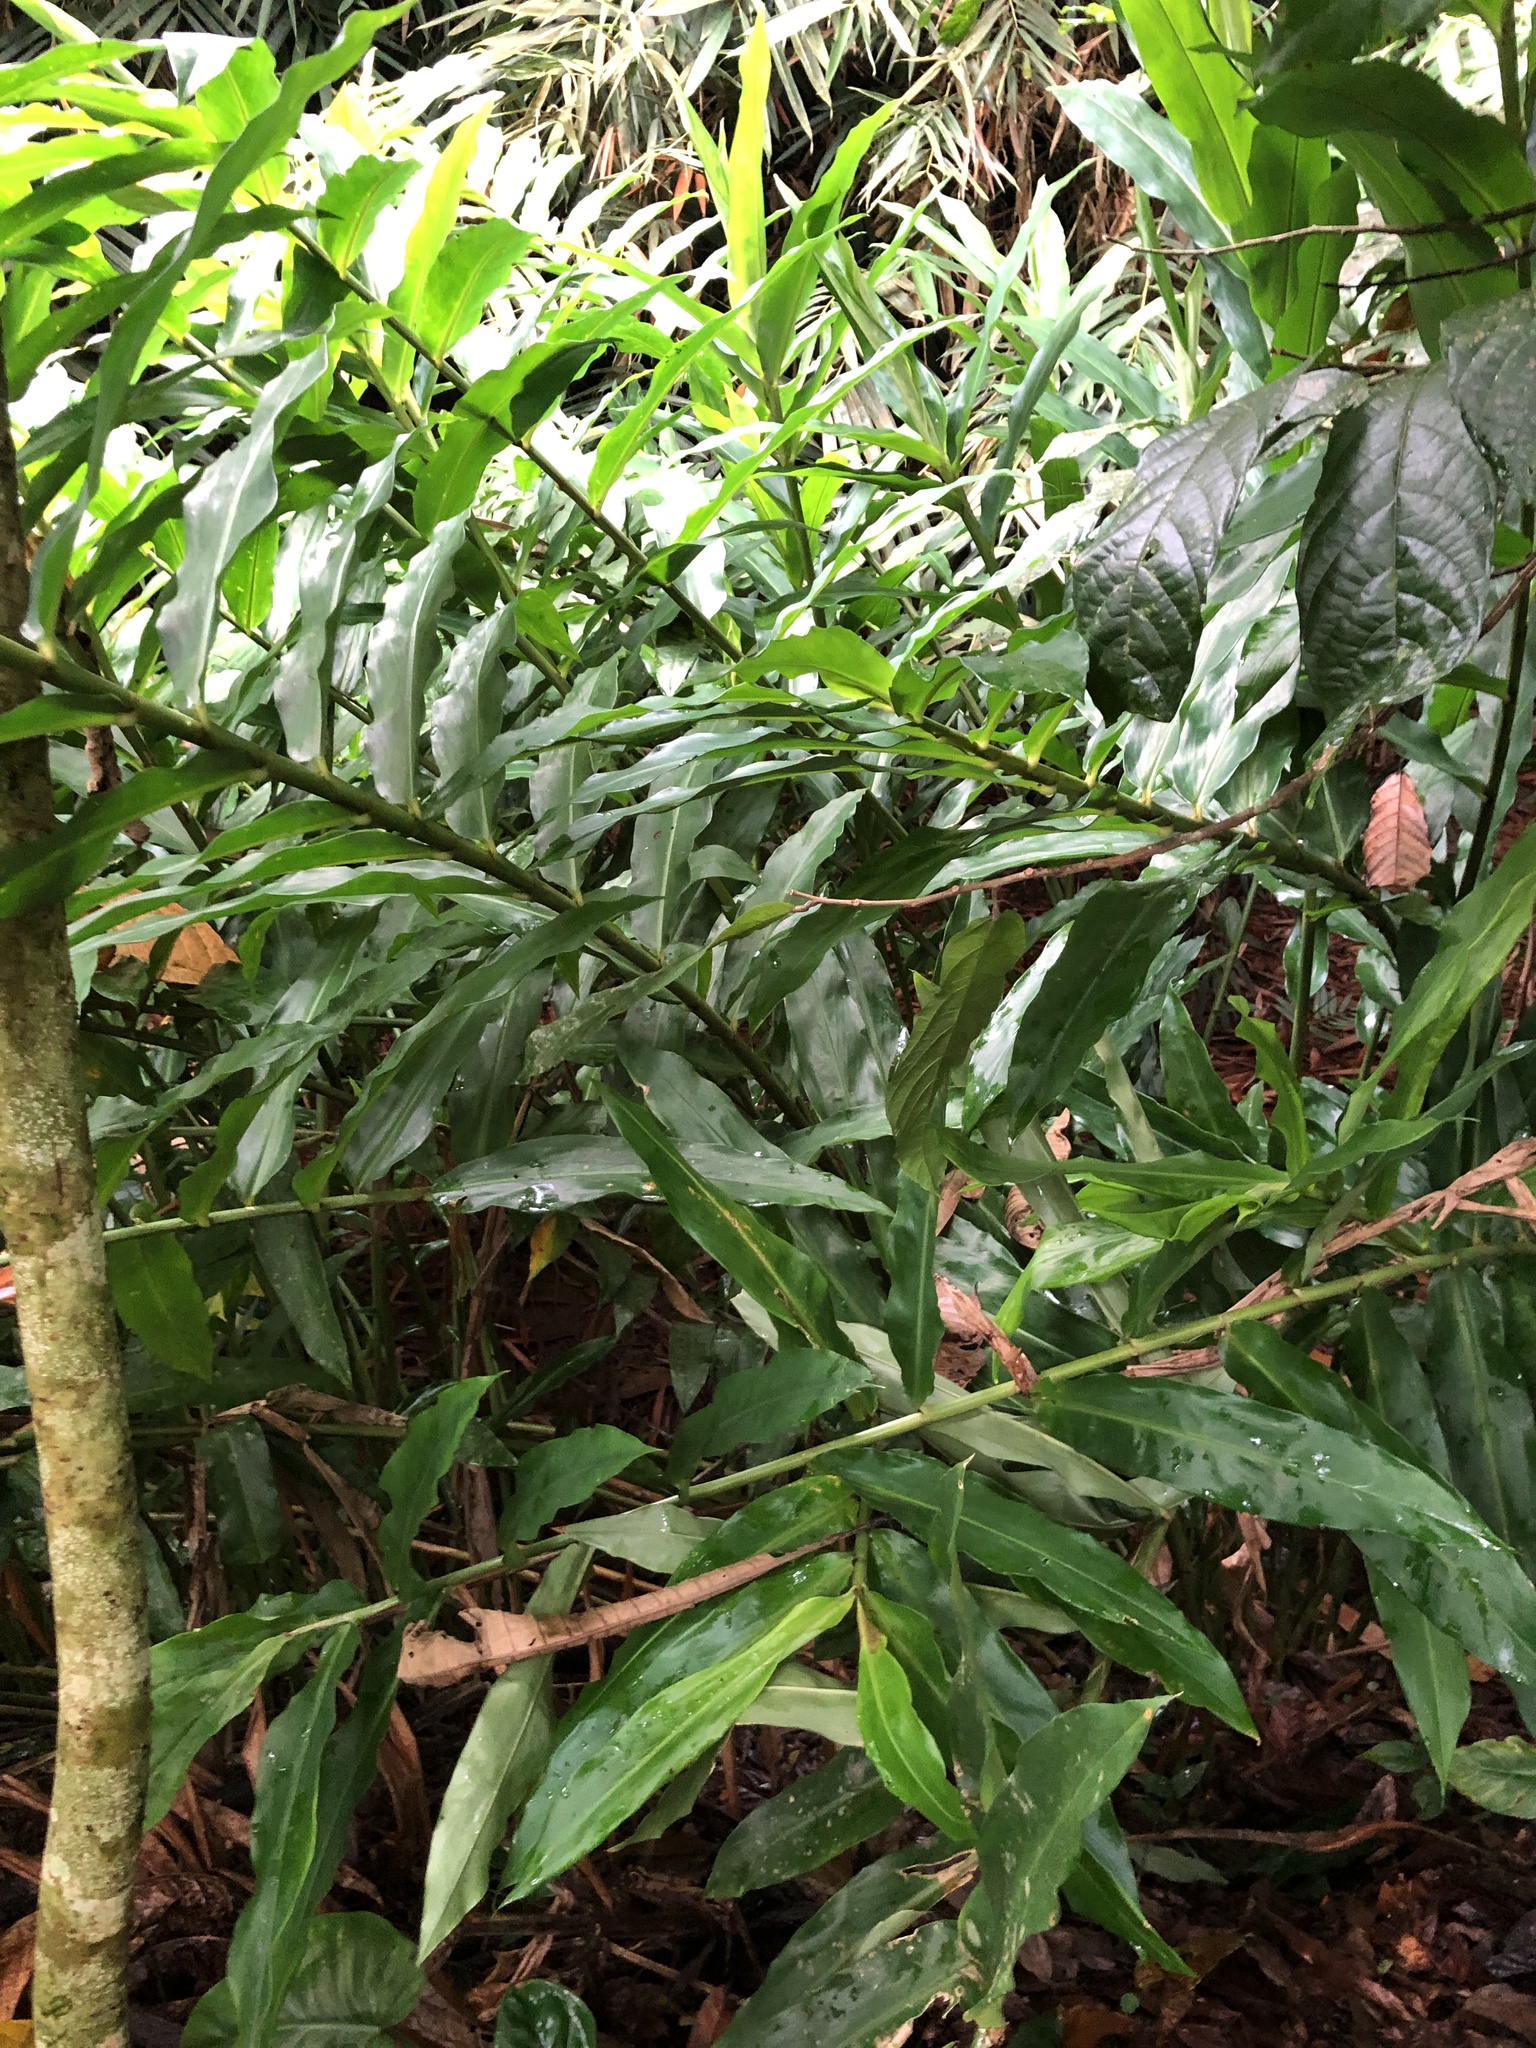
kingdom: Plantae
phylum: Tracheophyta
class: Liliopsida
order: Zingiberales
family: Zingiberaceae
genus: Zingiber
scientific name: Zingiber spectabile
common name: Beehive ginger
